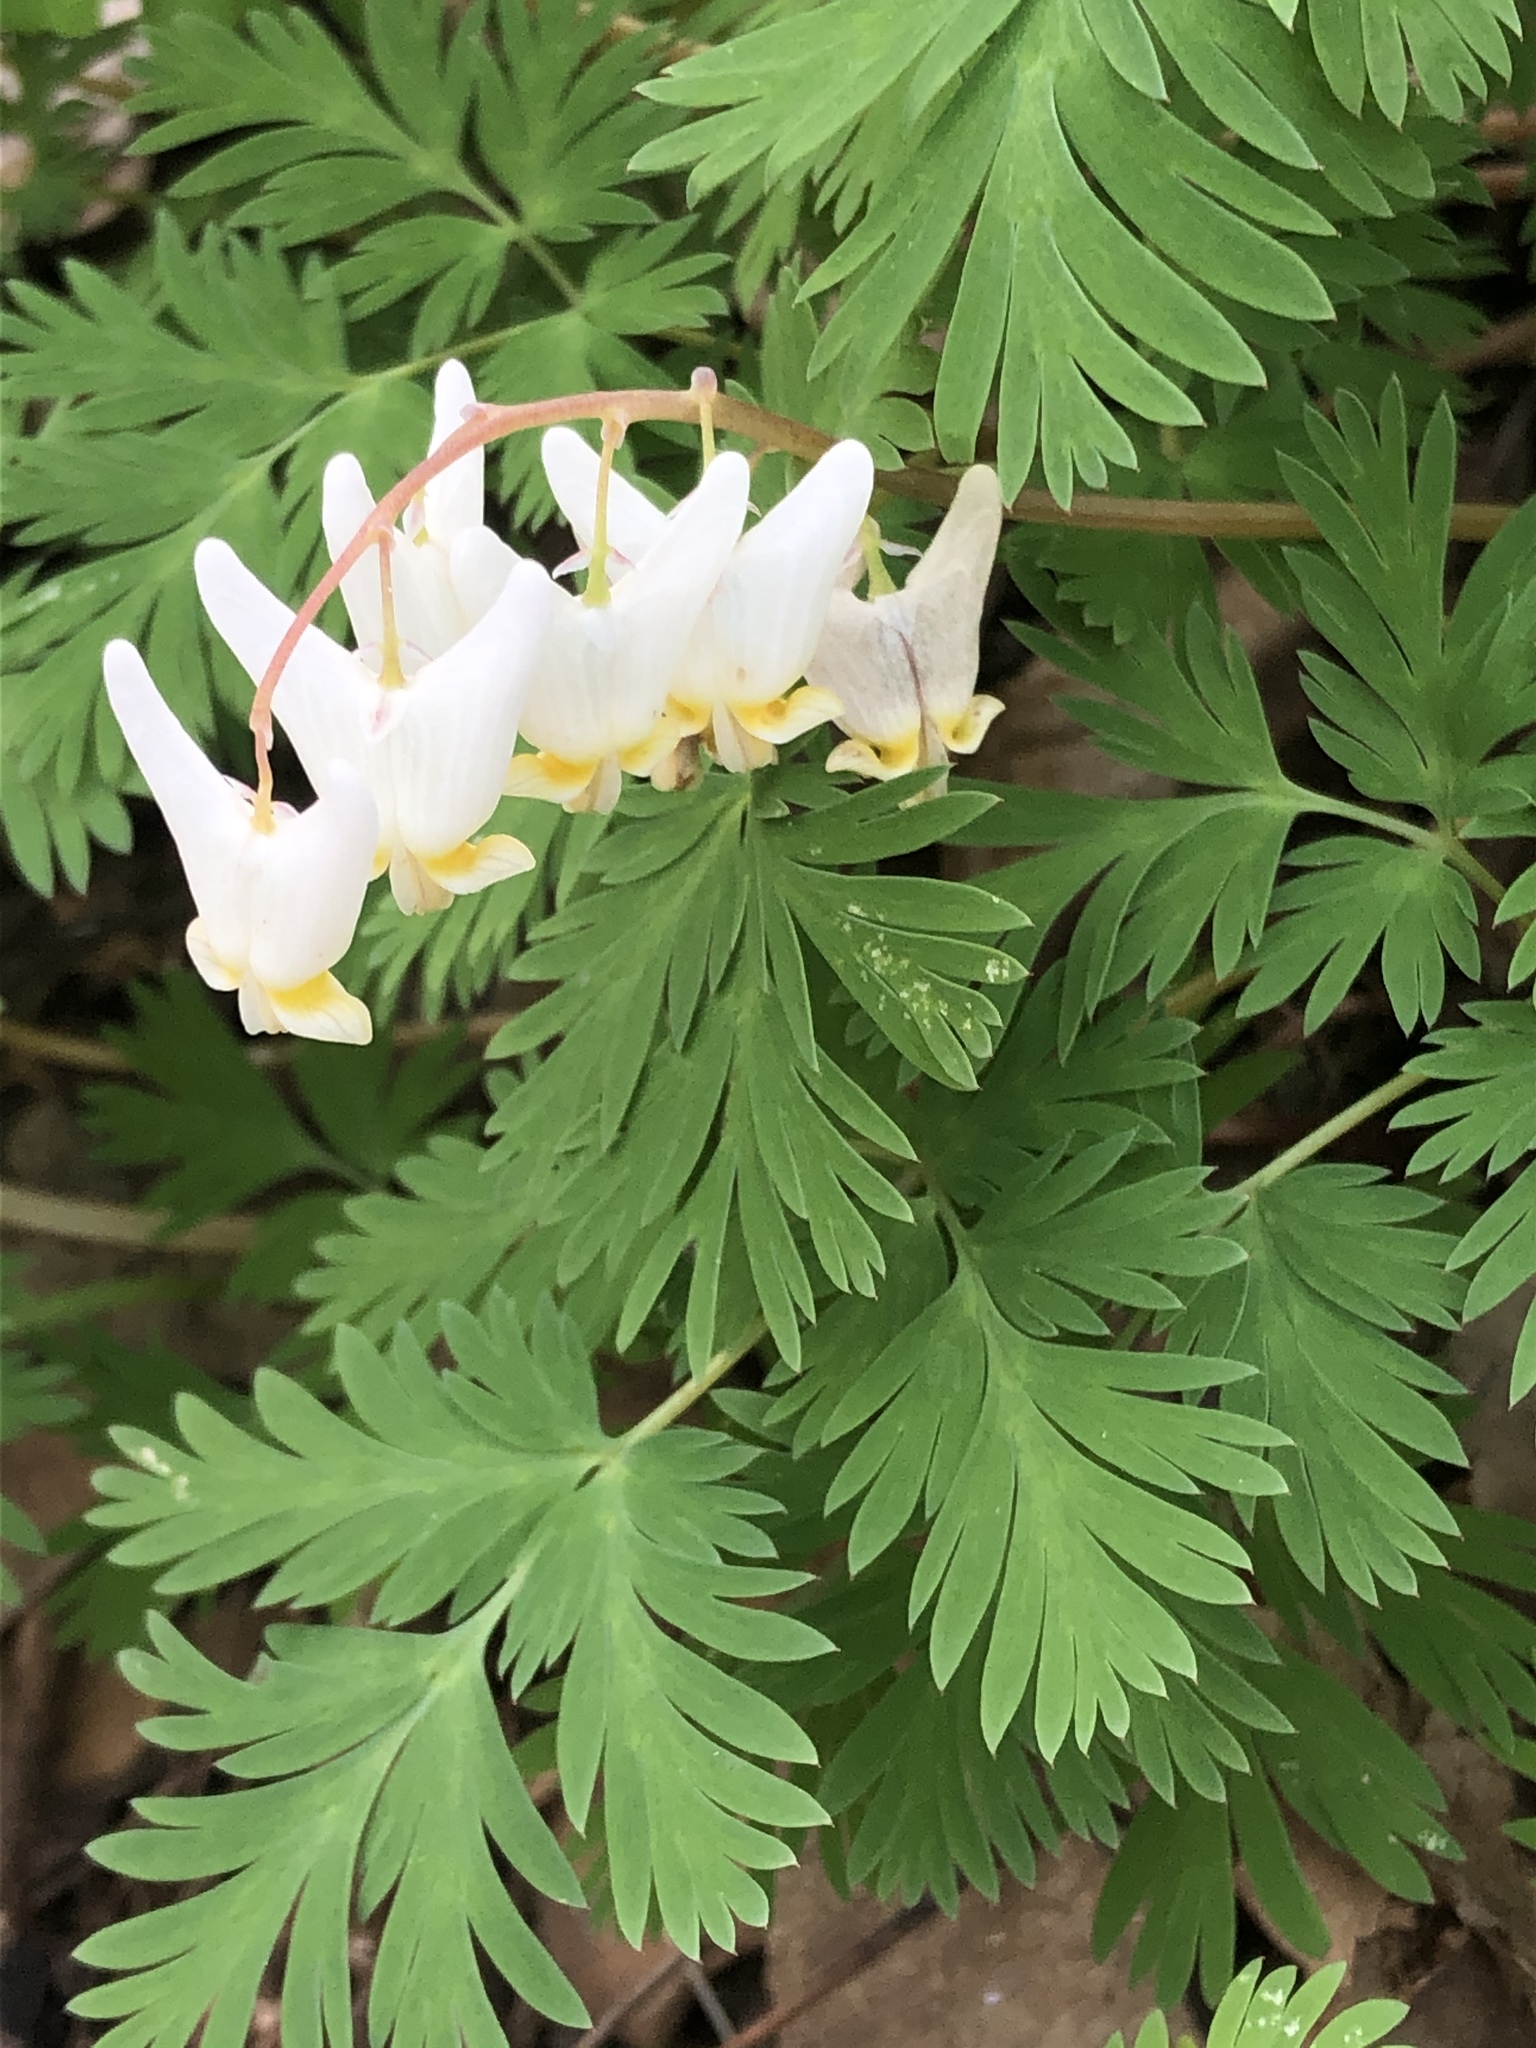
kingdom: Plantae
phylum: Tracheophyta
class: Magnoliopsida
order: Ranunculales
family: Papaveraceae
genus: Dicentra
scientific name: Dicentra cucullaria
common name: Dutchman's breeches
